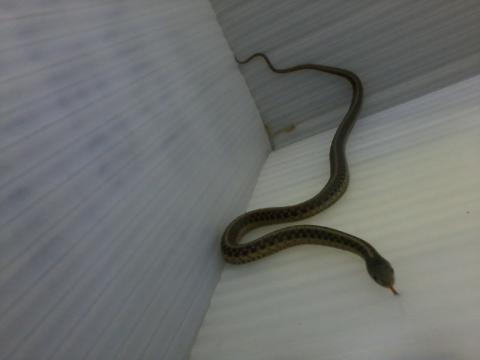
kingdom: Animalia
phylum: Chordata
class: Squamata
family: Colubridae
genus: Thamnophis
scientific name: Thamnophis sirtalis
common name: Common garter snake
